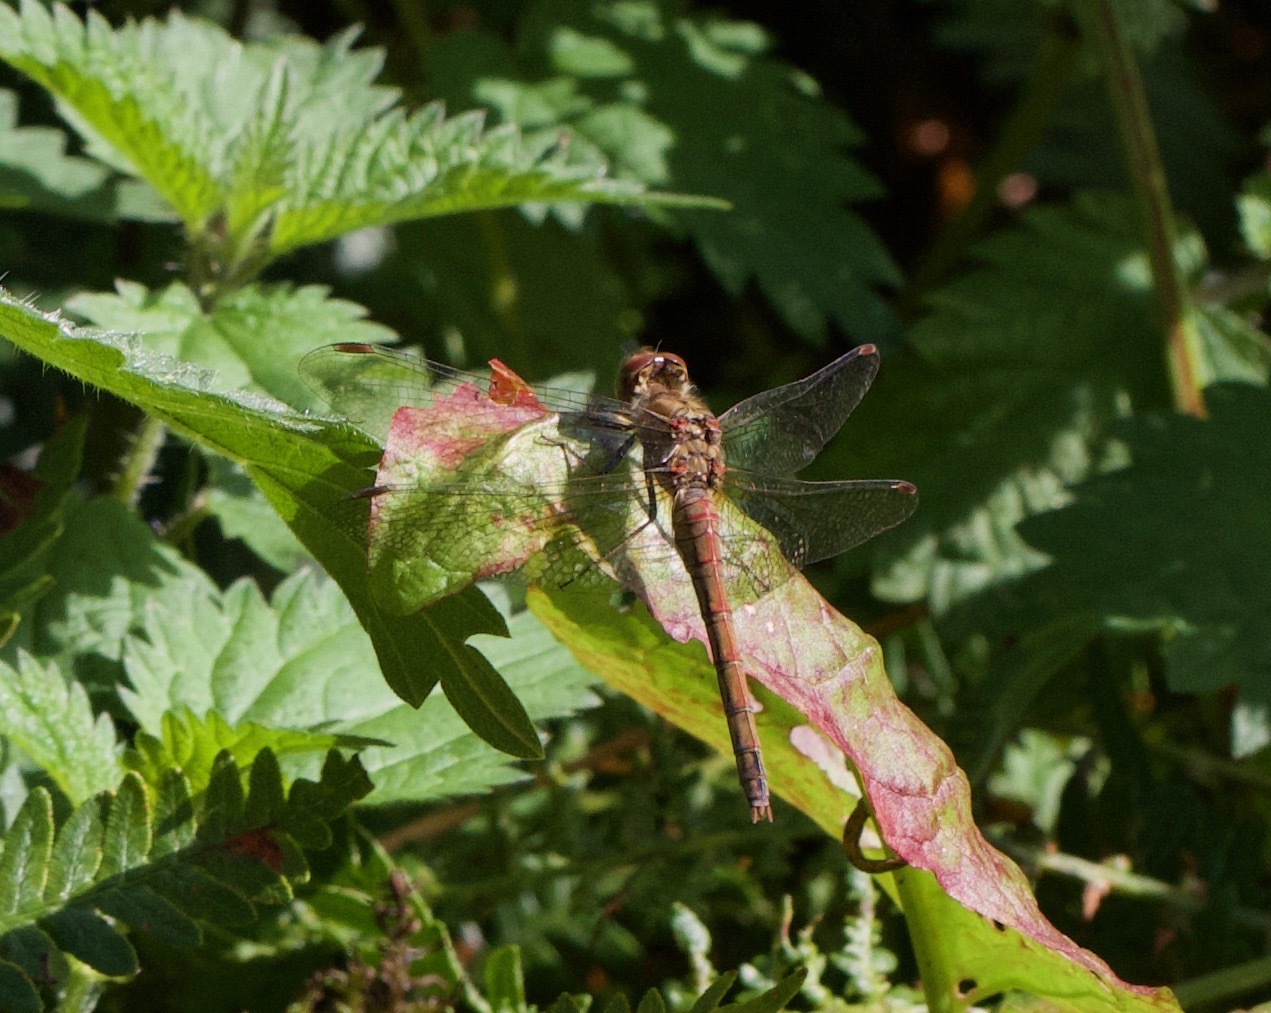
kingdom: Animalia
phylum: Arthropoda
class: Insecta
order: Odonata
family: Libellulidae
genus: Sympetrum
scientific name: Sympetrum striolatum
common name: Common darter
